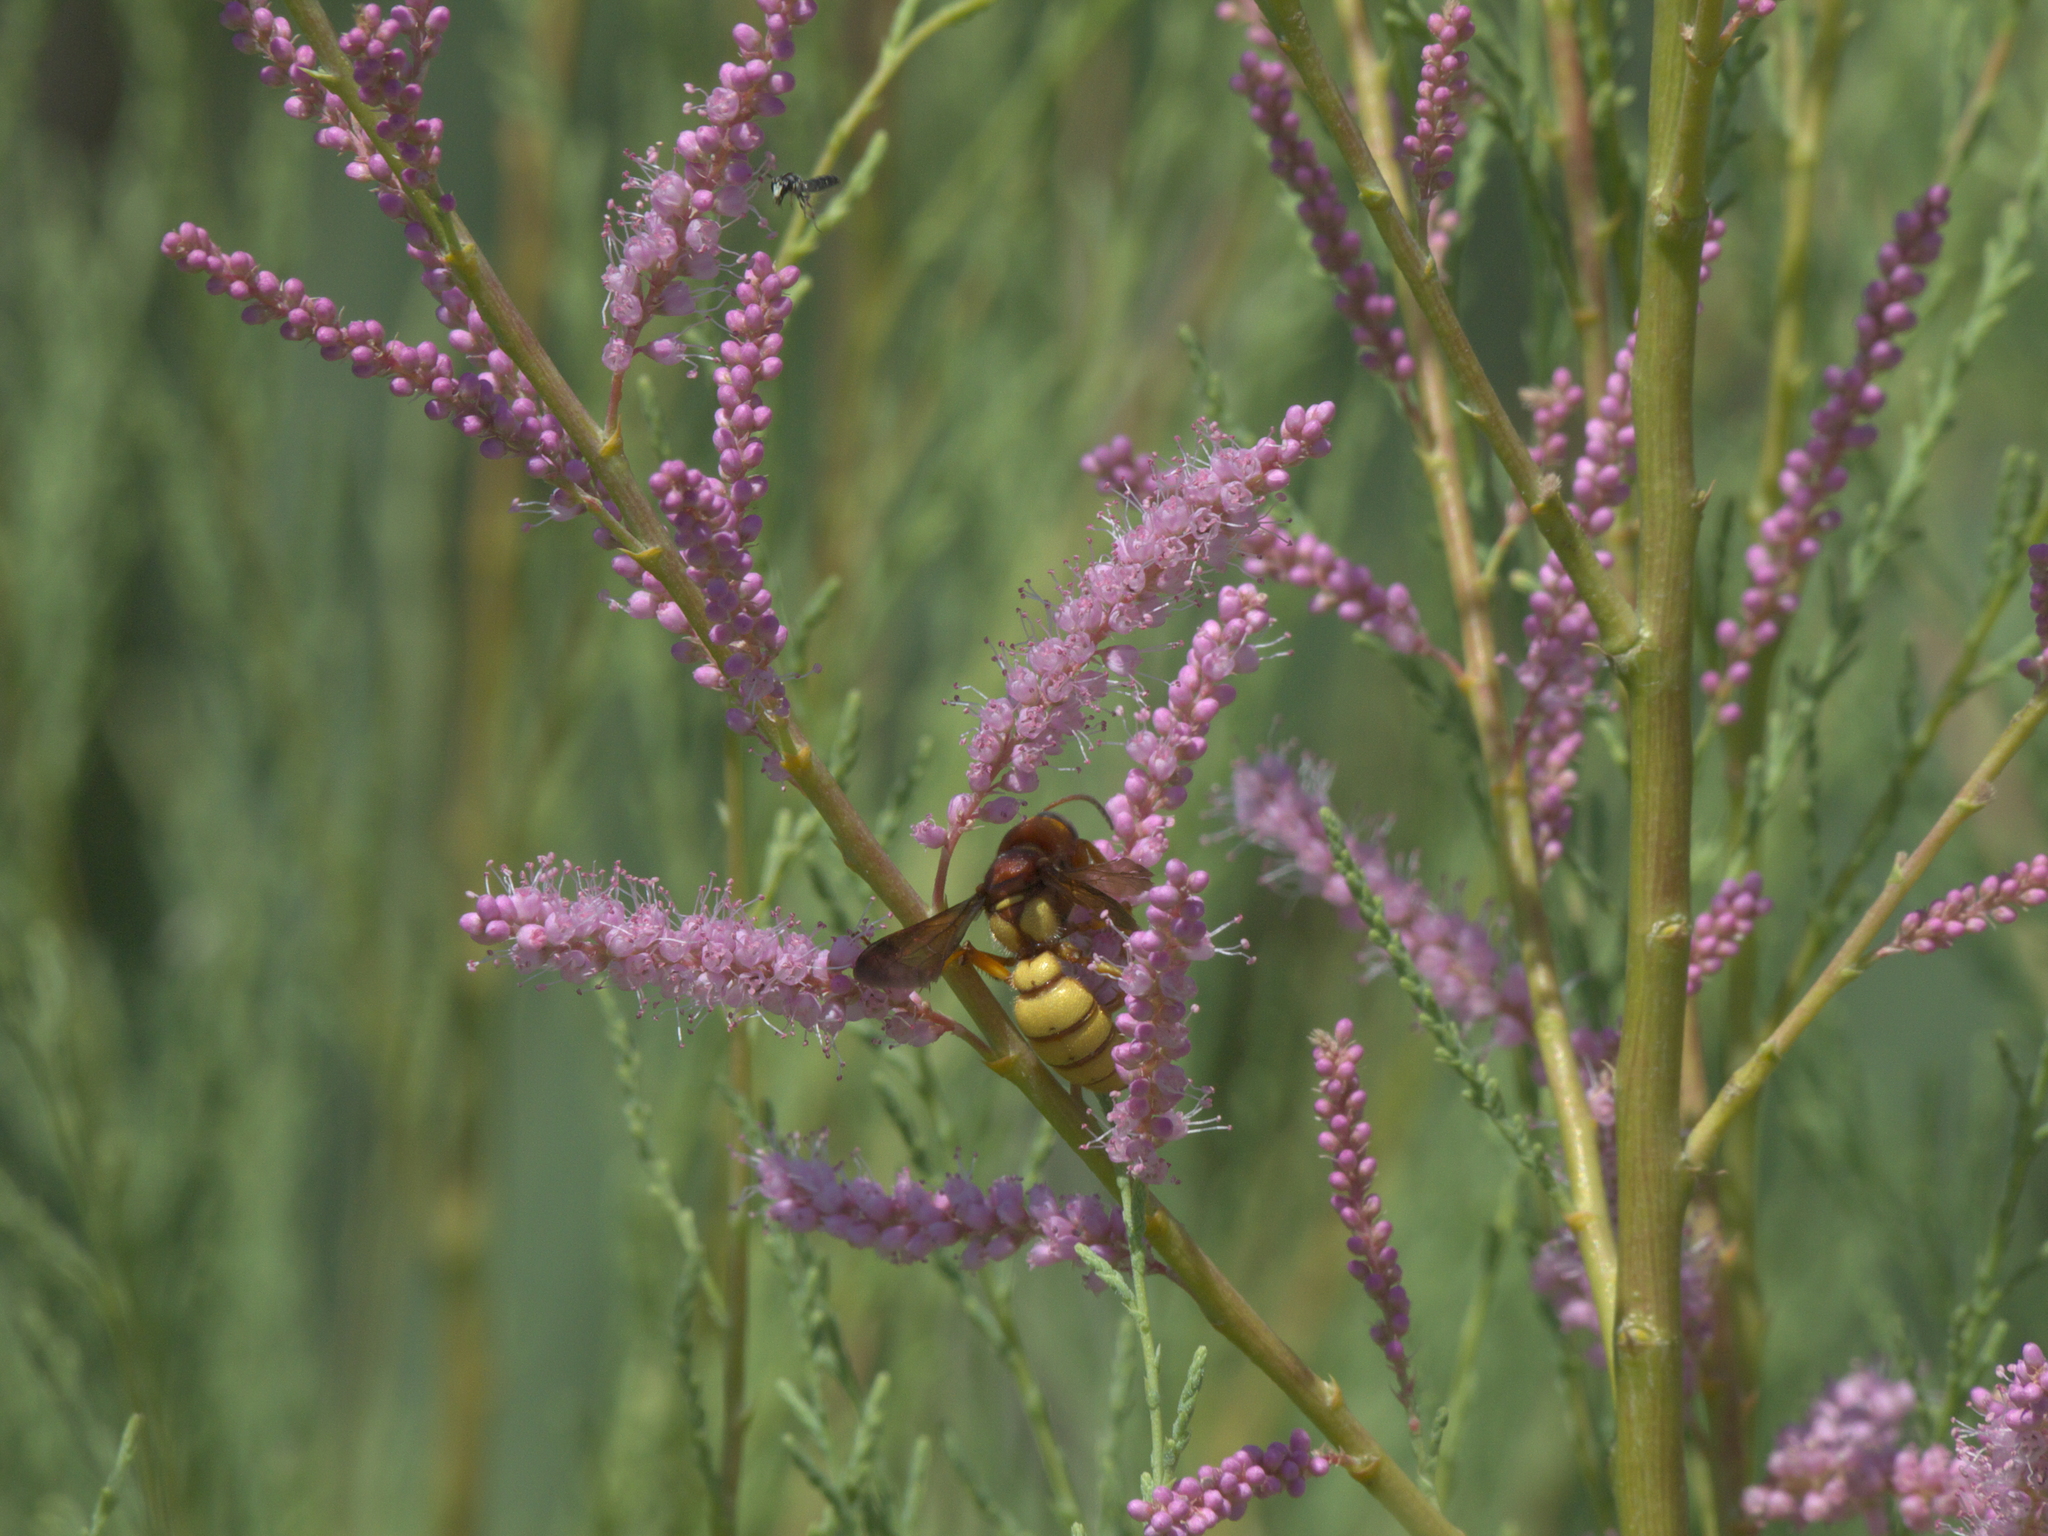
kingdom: Plantae
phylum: Tracheophyta
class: Magnoliopsida
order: Caryophyllales
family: Tamaricaceae
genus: Tamarix
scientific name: Tamarix ramosissima
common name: Pink tamarisk
